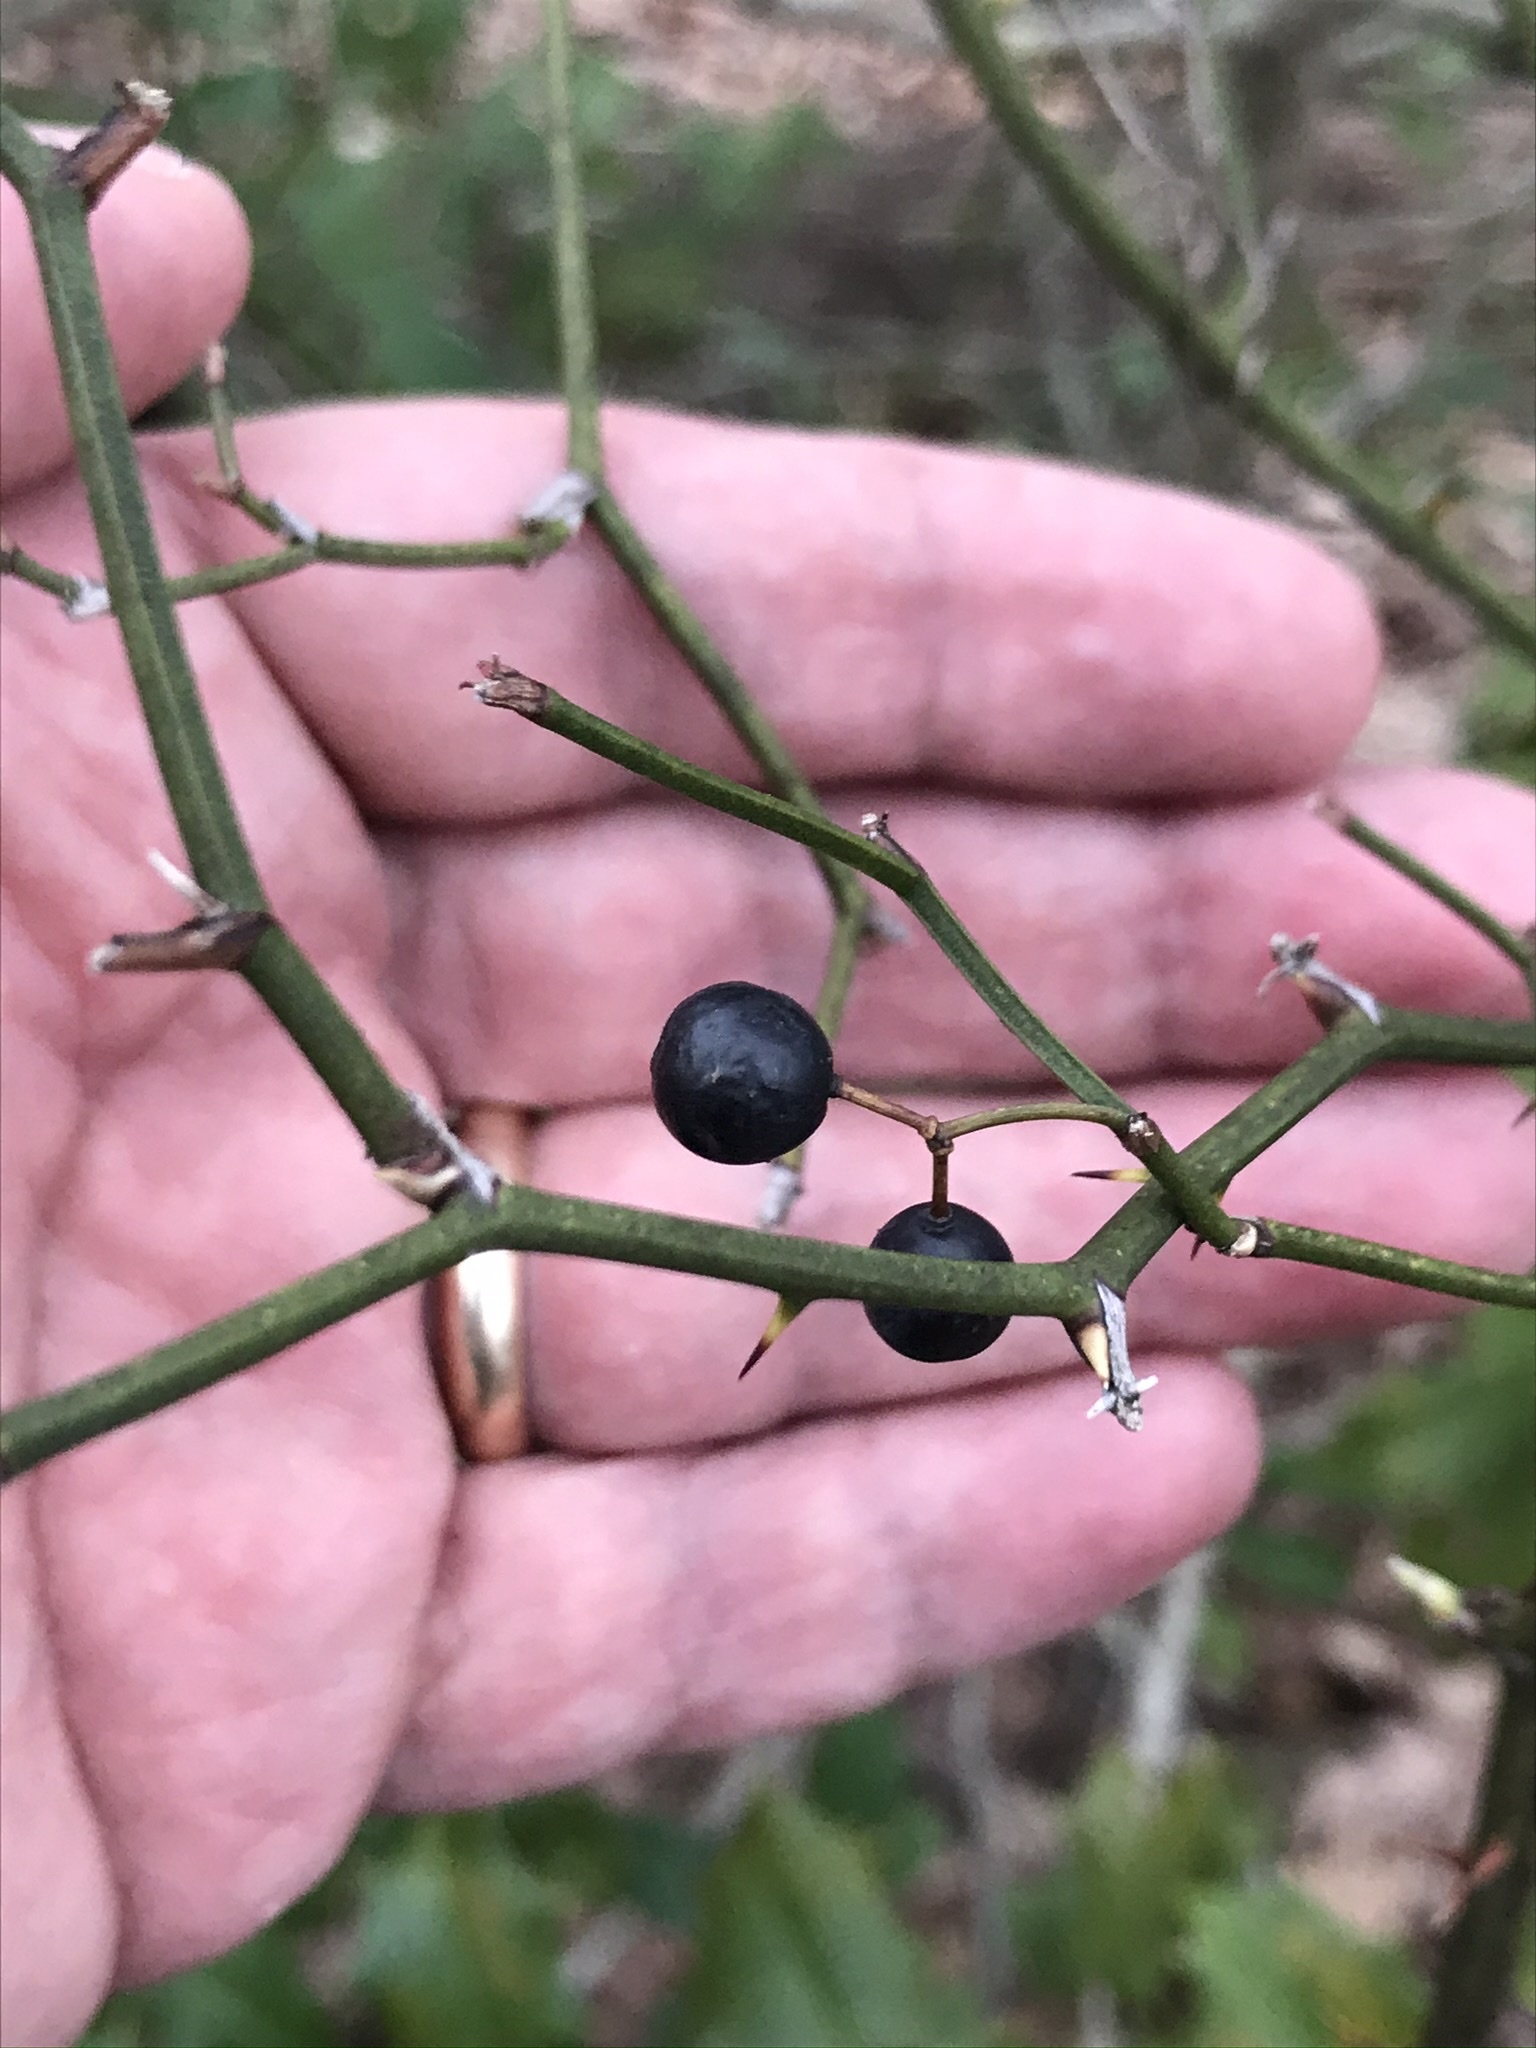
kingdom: Plantae
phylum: Tracheophyta
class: Liliopsida
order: Liliales
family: Smilacaceae
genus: Smilax
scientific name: Smilax rotundifolia
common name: Bullbriar
